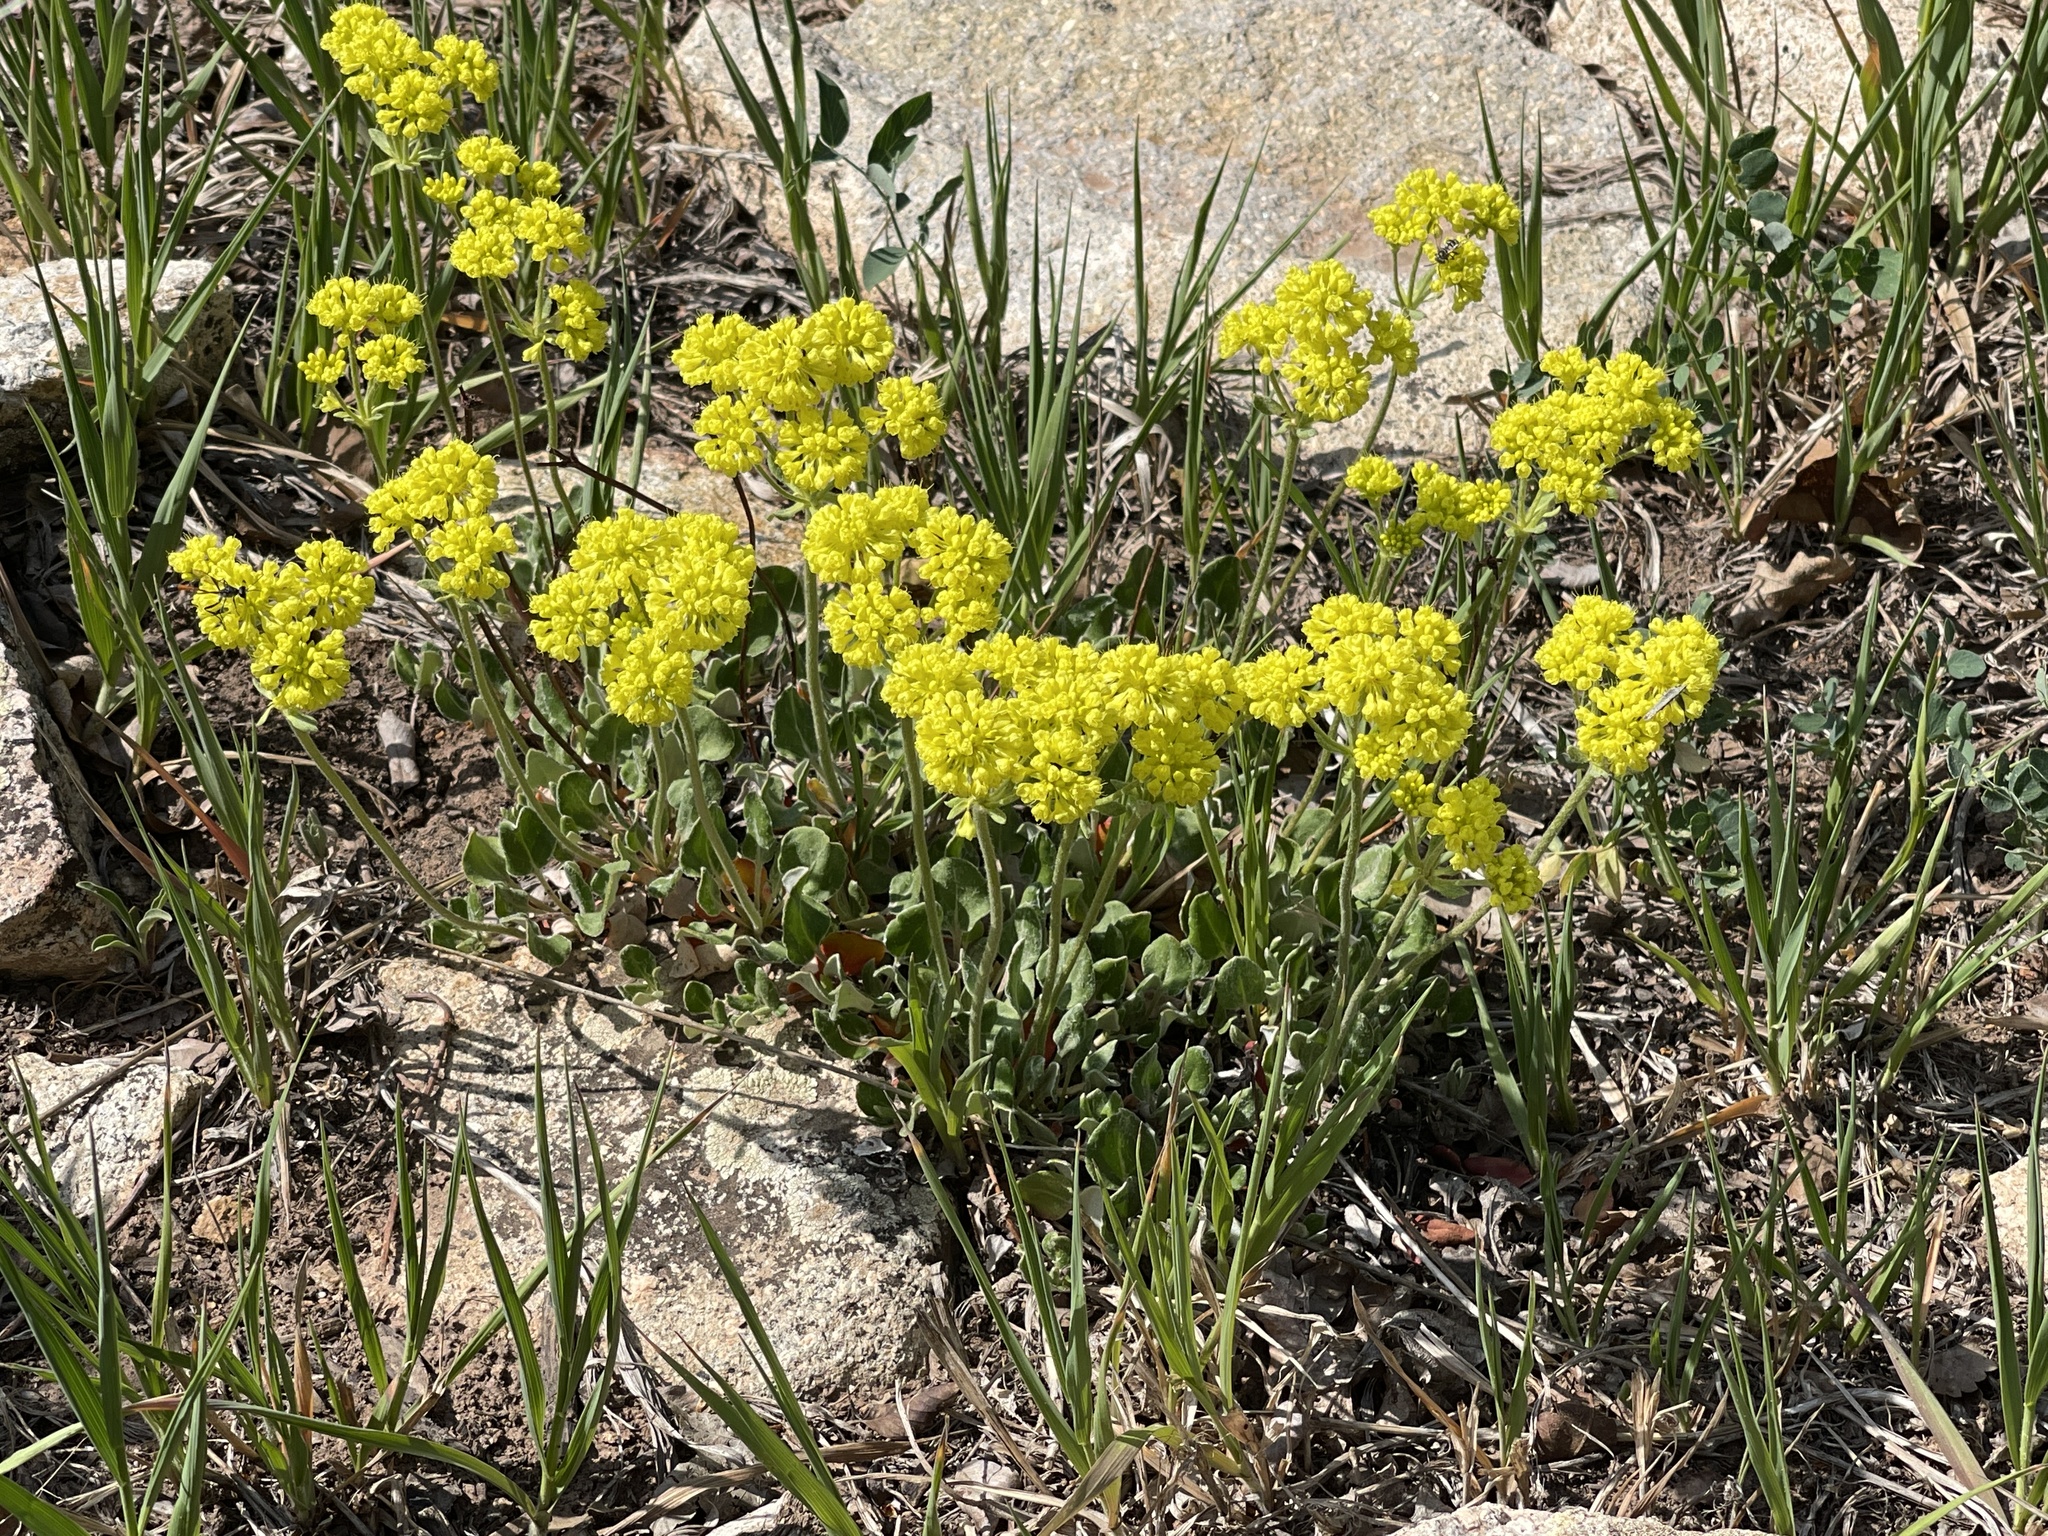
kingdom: Plantae
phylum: Tracheophyta
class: Magnoliopsida
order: Caryophyllales
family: Polygonaceae
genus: Eriogonum
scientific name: Eriogonum umbellatum
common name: Sulfur-buckwheat
